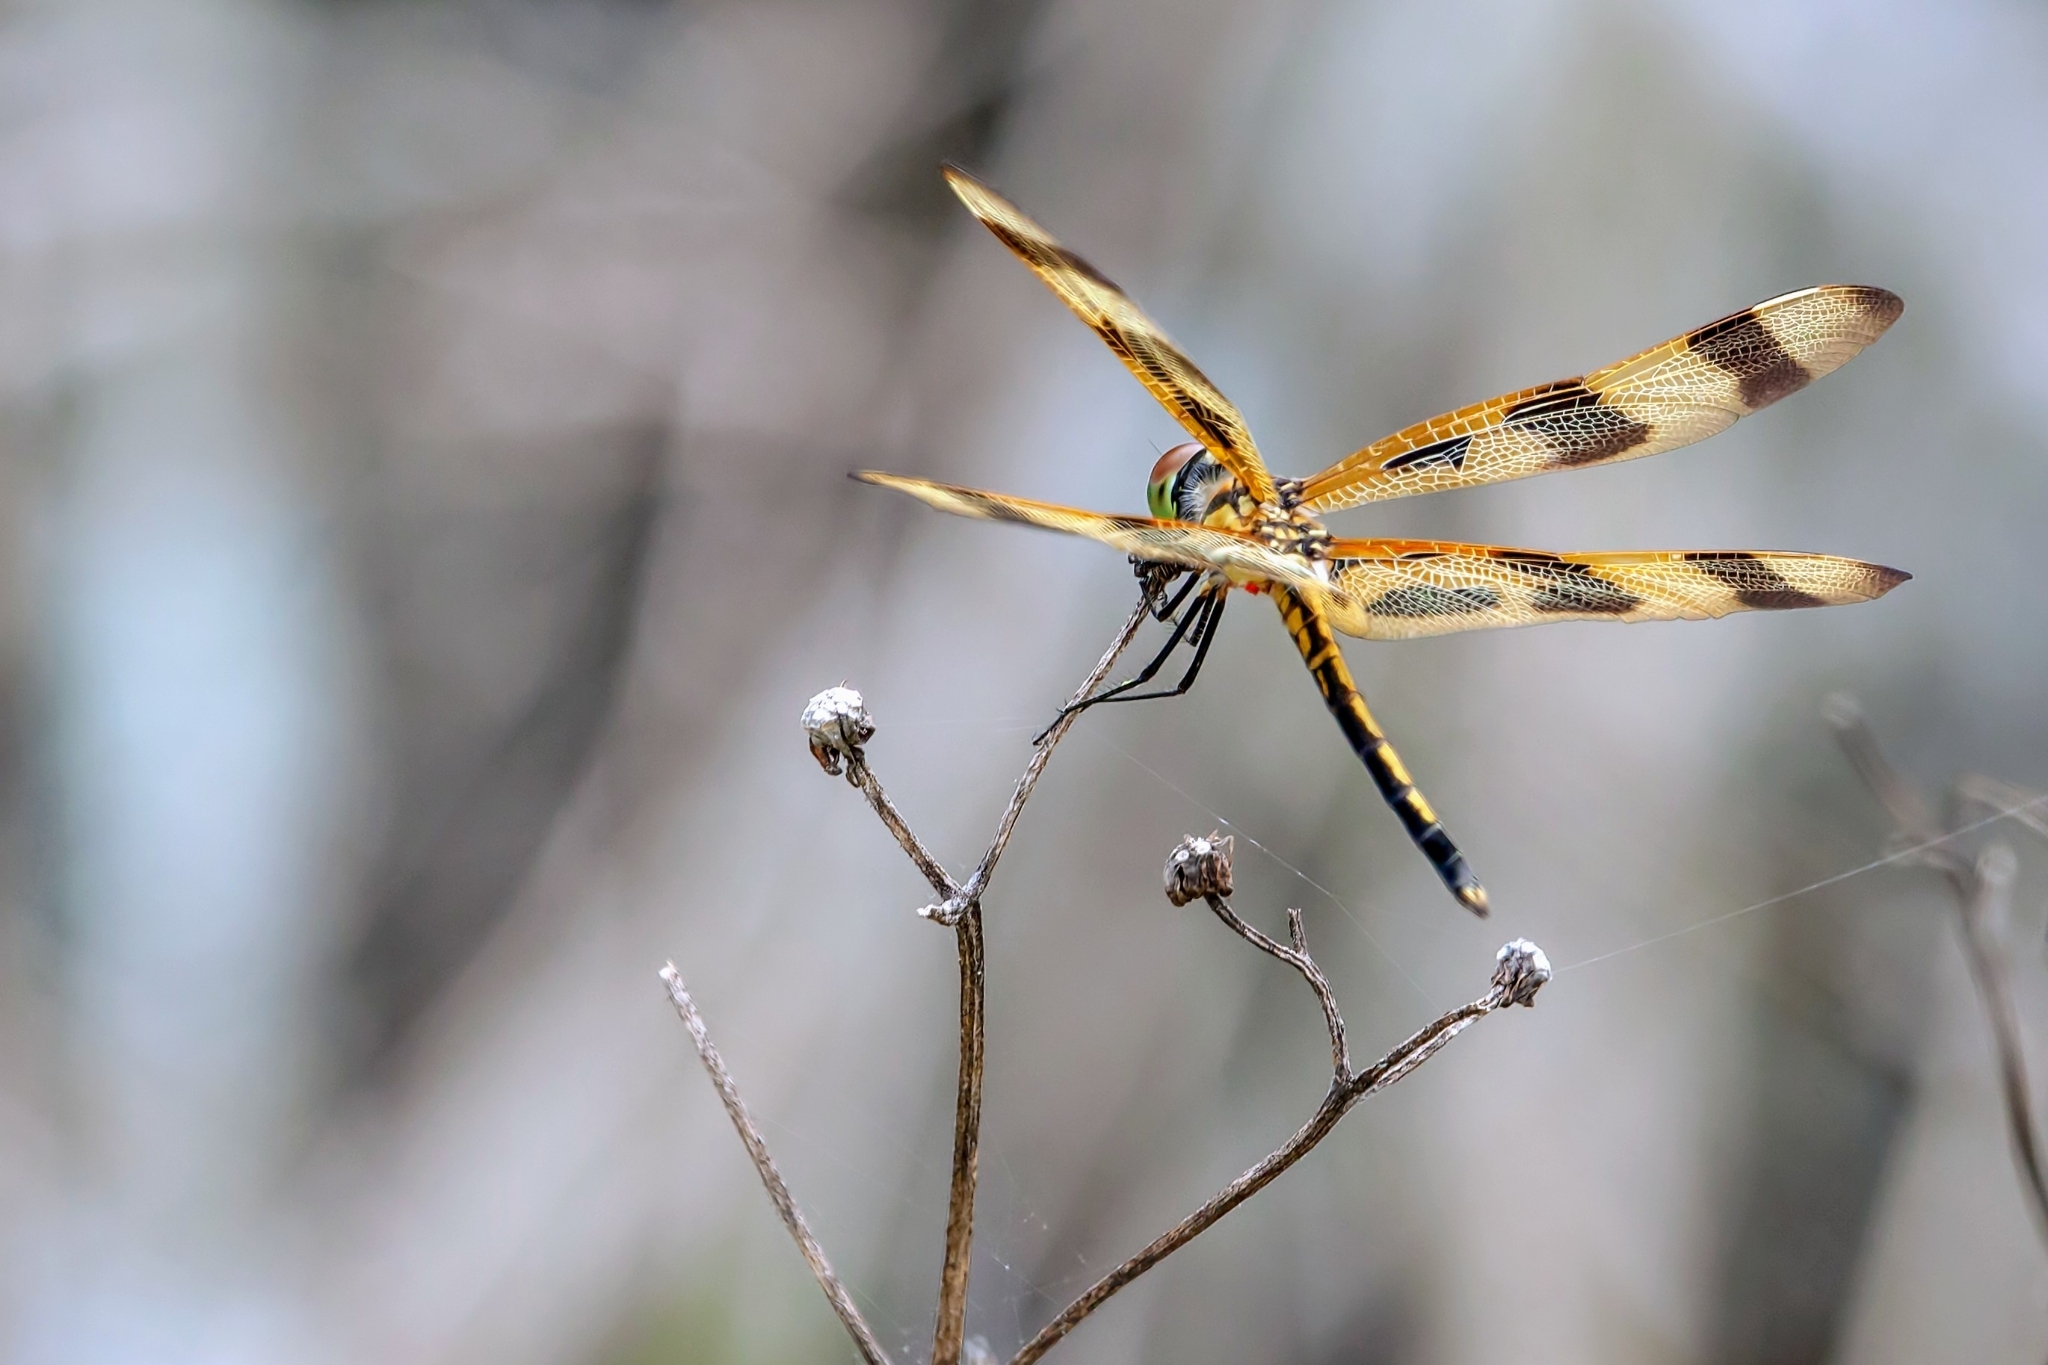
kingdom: Animalia
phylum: Arthropoda
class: Insecta
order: Odonata
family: Libellulidae
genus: Celithemis
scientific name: Celithemis eponina
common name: Halloween pennant
